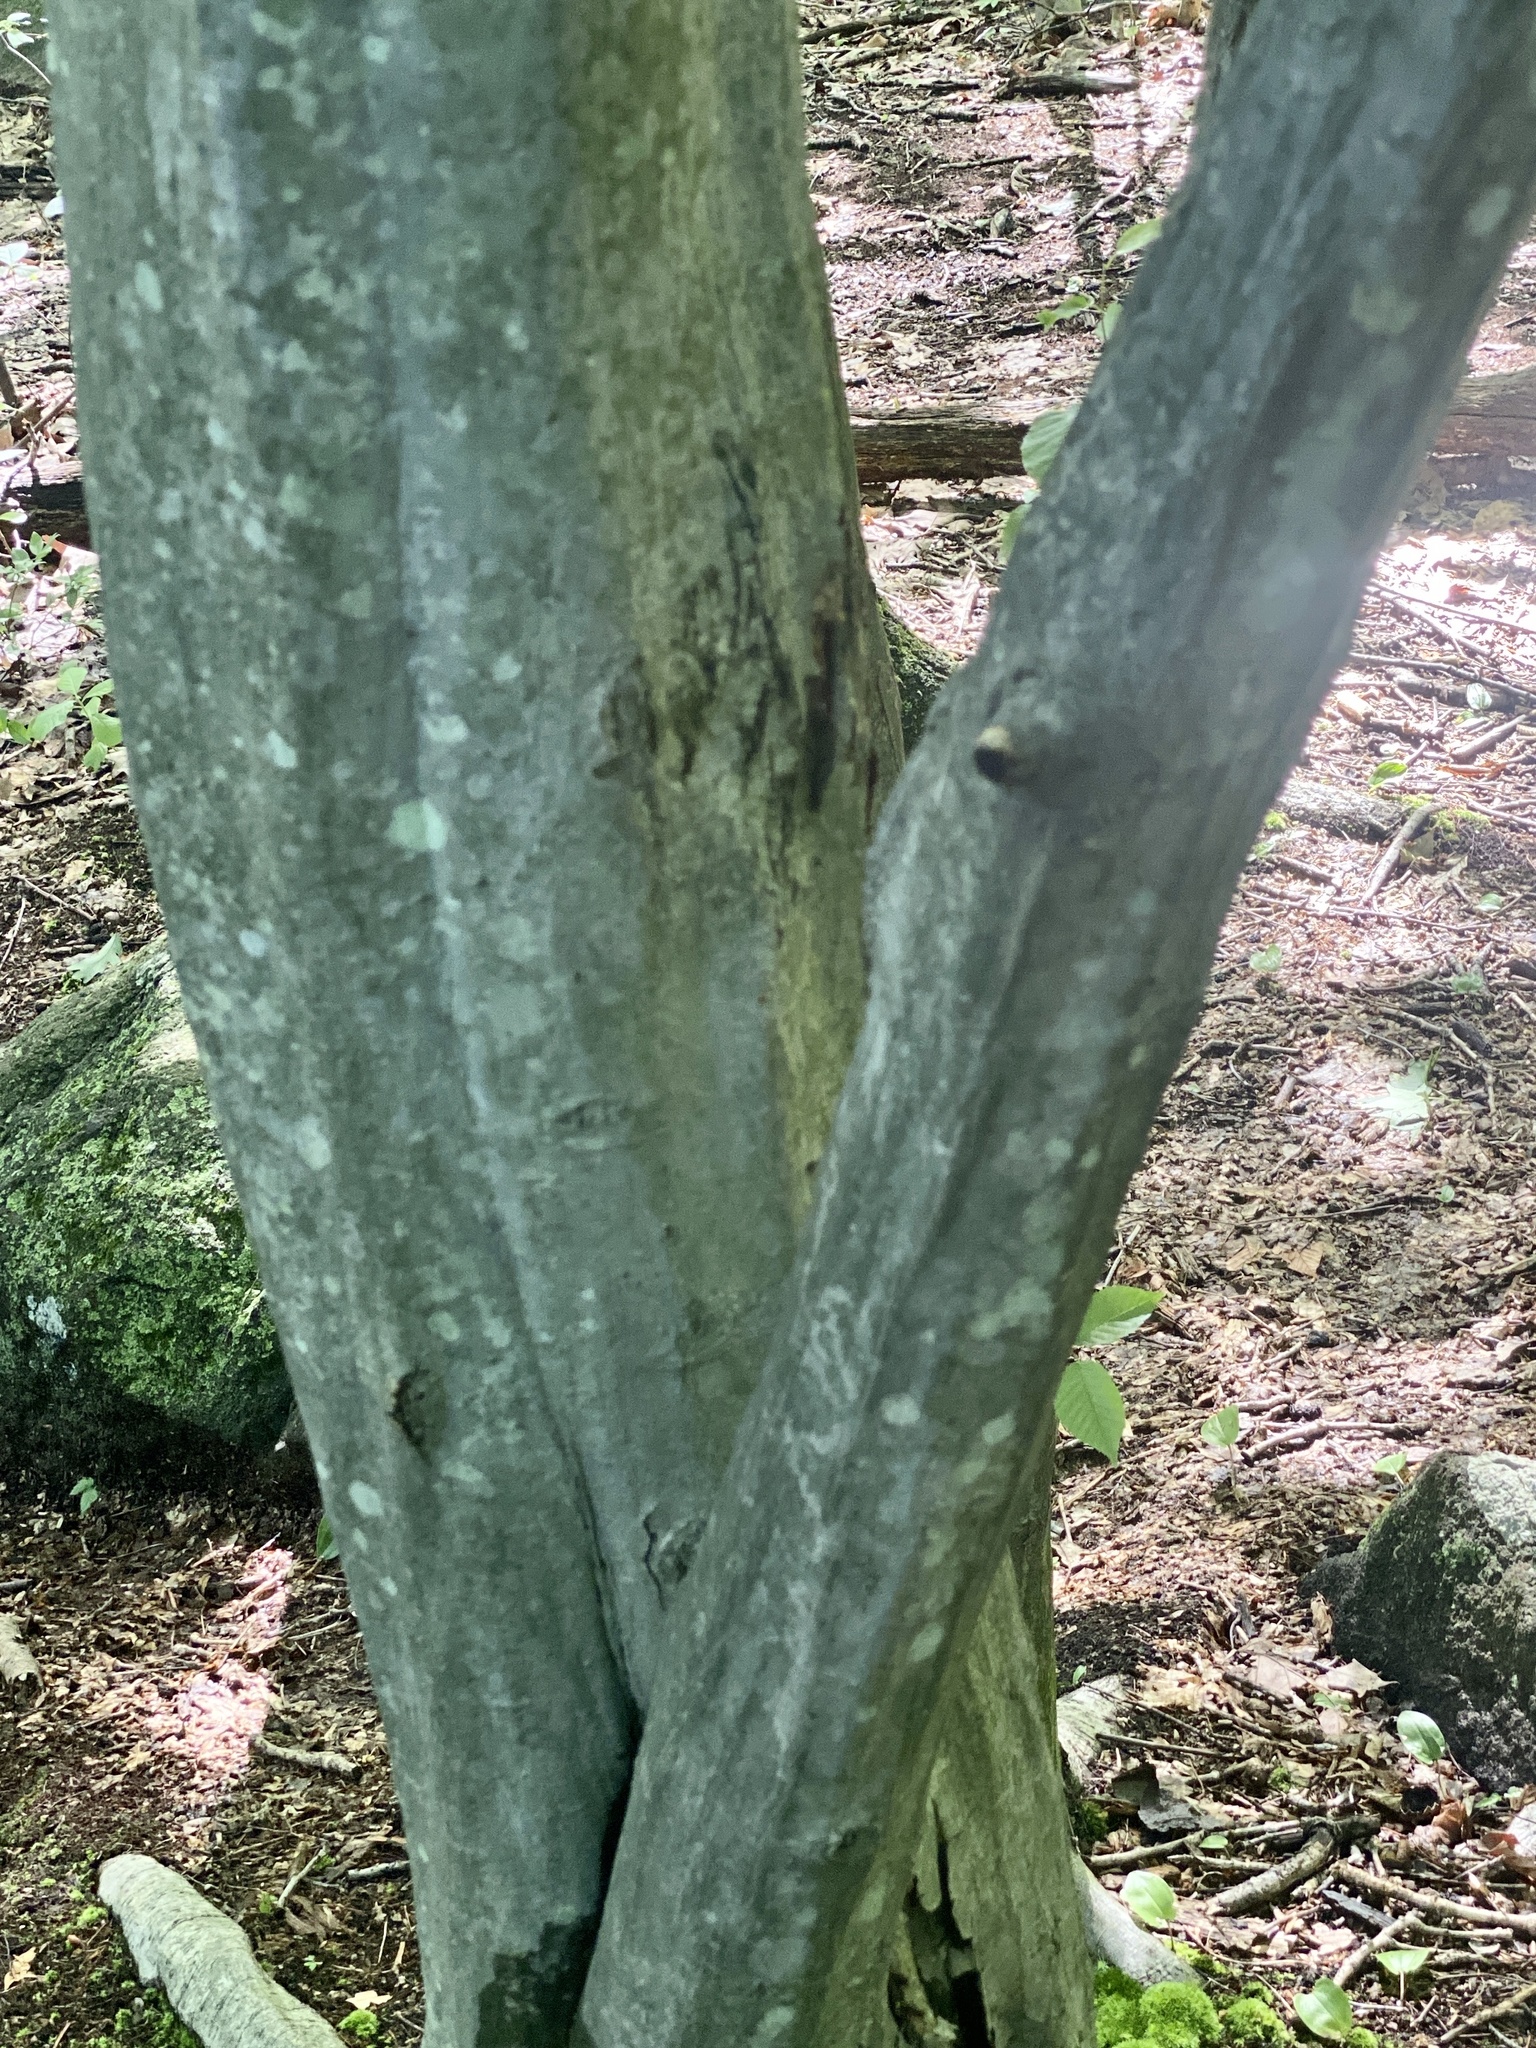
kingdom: Plantae
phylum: Tracheophyta
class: Magnoliopsida
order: Fagales
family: Betulaceae
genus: Carpinus
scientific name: Carpinus caroliniana
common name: American hornbeam
